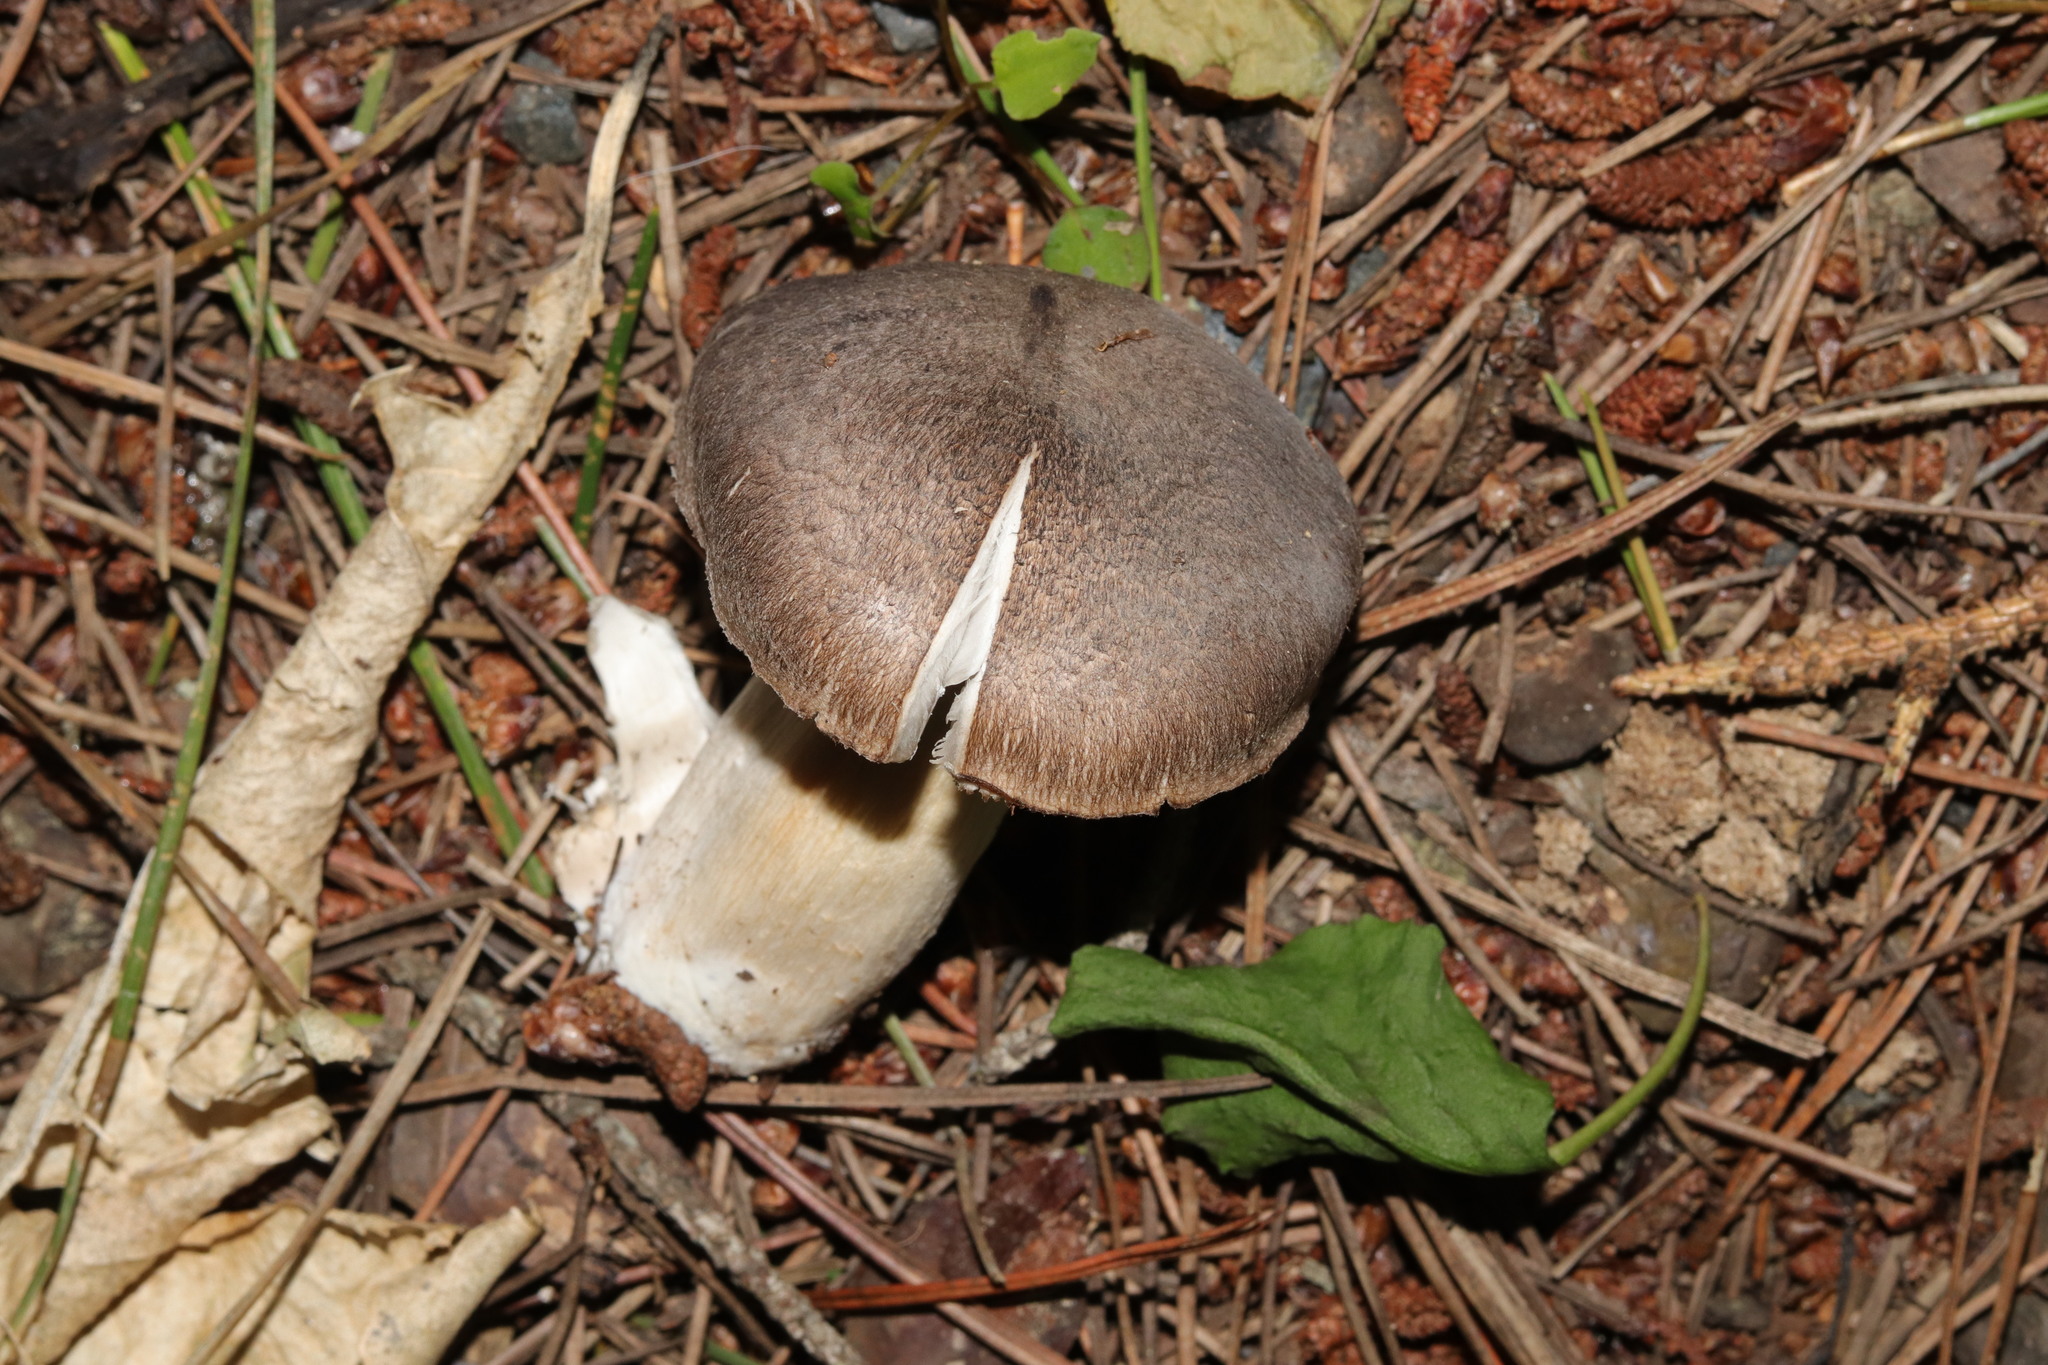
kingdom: Fungi
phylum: Basidiomycota
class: Agaricomycetes
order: Agaricales
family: Tricholomataceae
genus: Tricholoma
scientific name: Tricholoma terreum
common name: Grey knight
